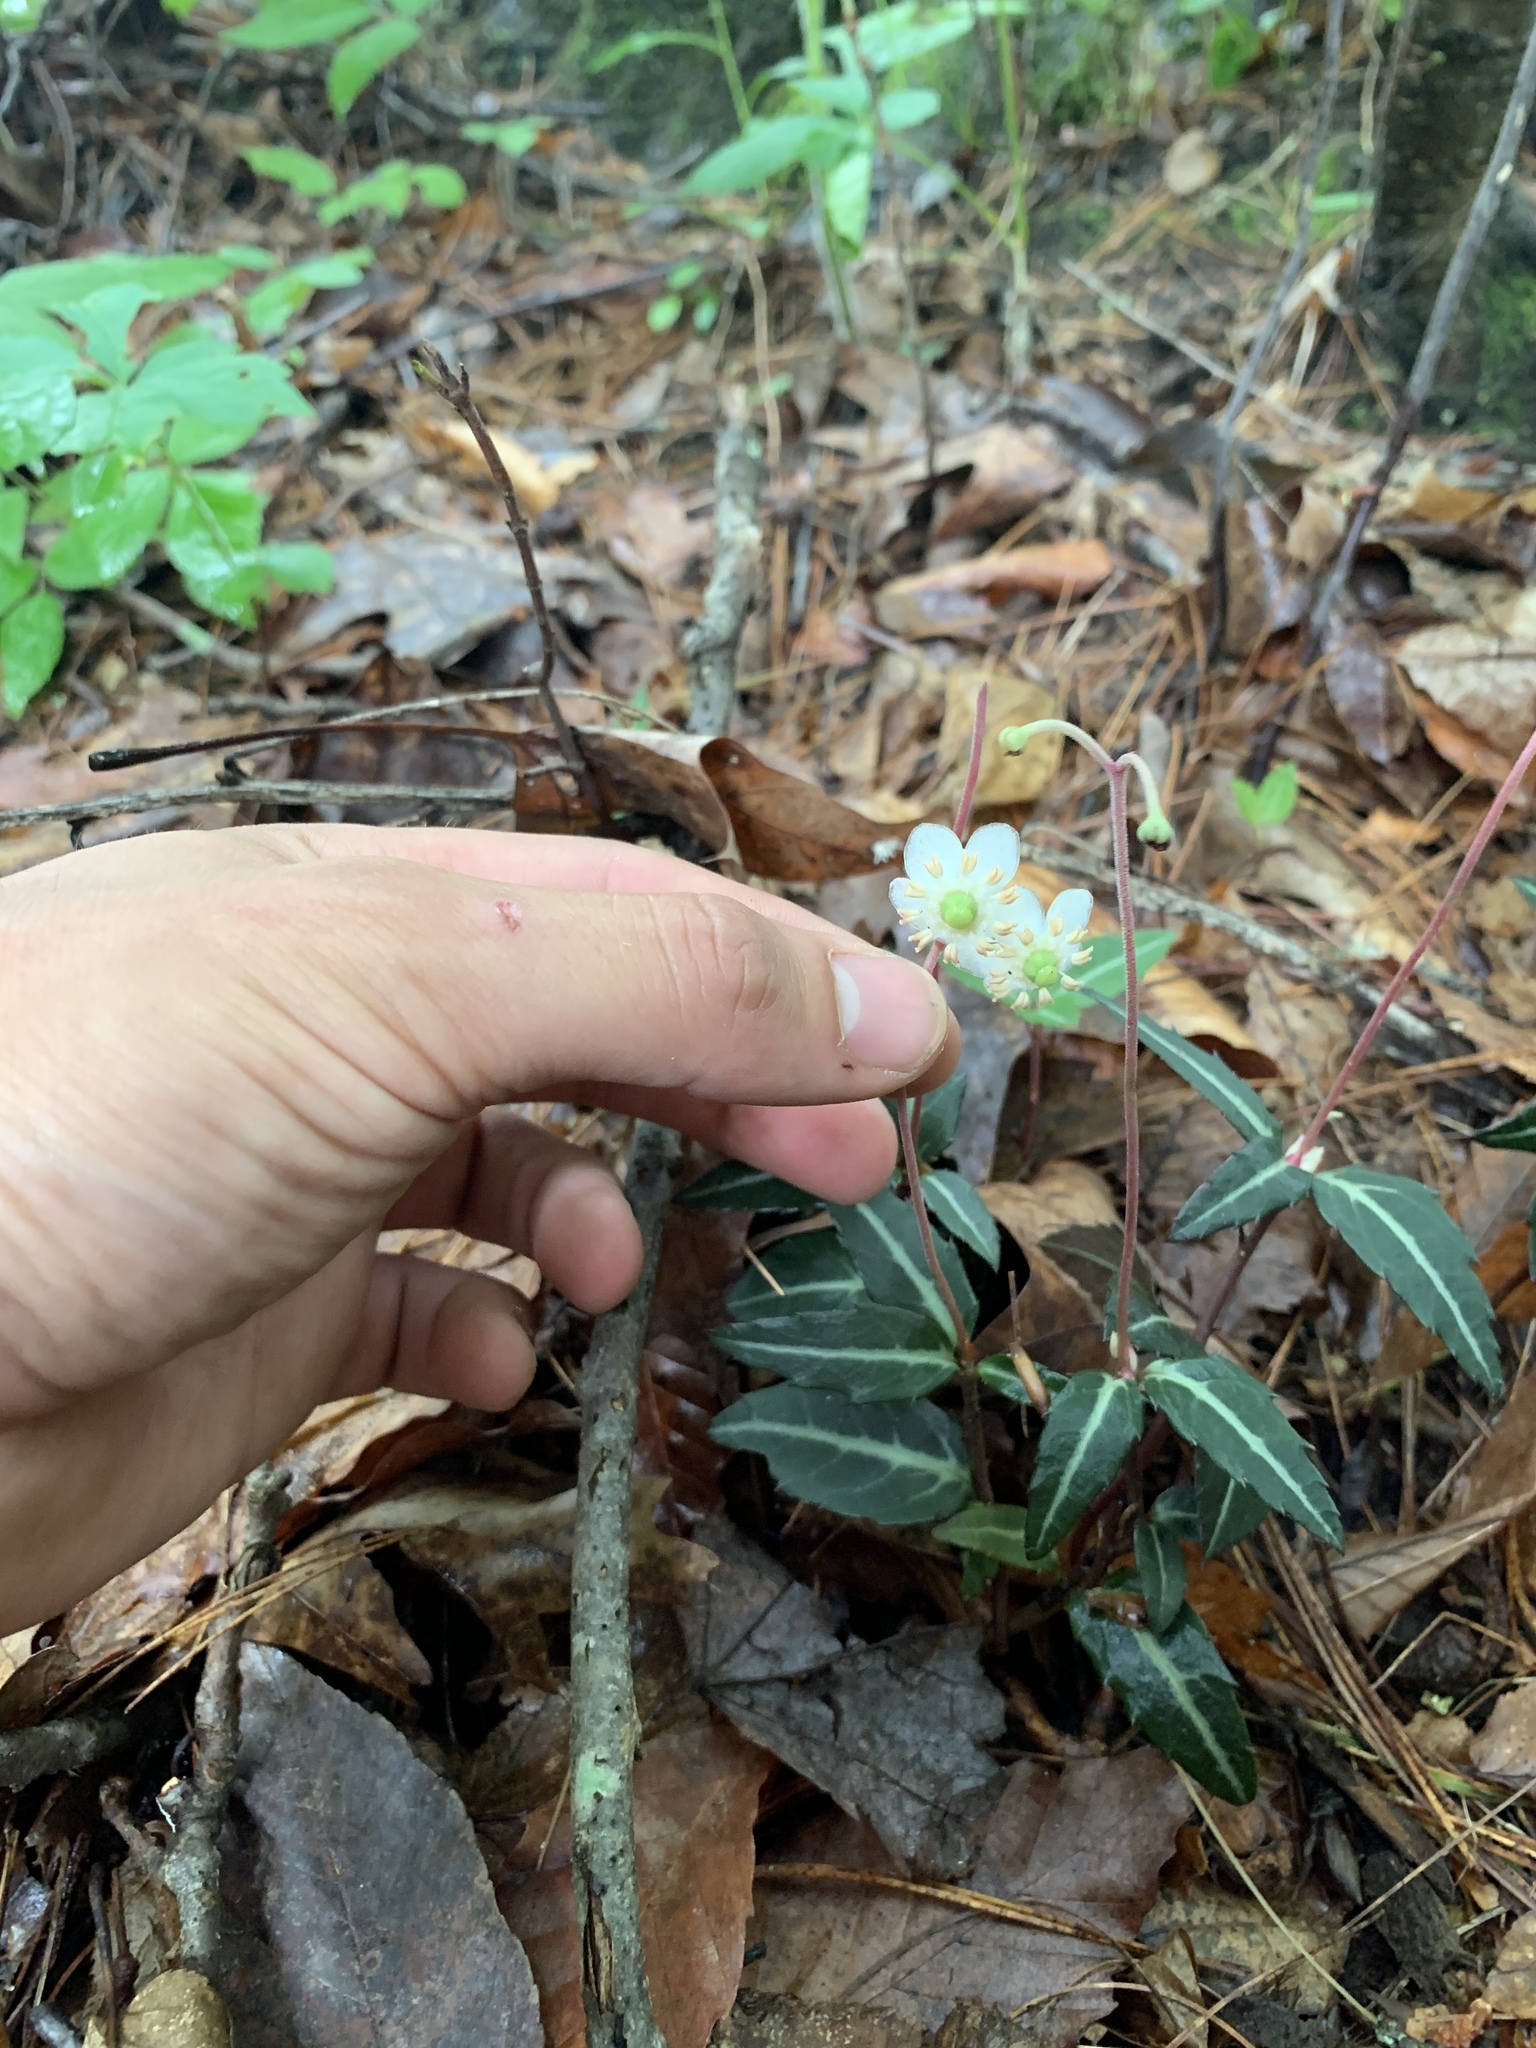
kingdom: Plantae
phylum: Tracheophyta
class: Magnoliopsida
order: Ericales
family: Ericaceae
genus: Chimaphila
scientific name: Chimaphila maculata
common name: Spotted pipsissewa
